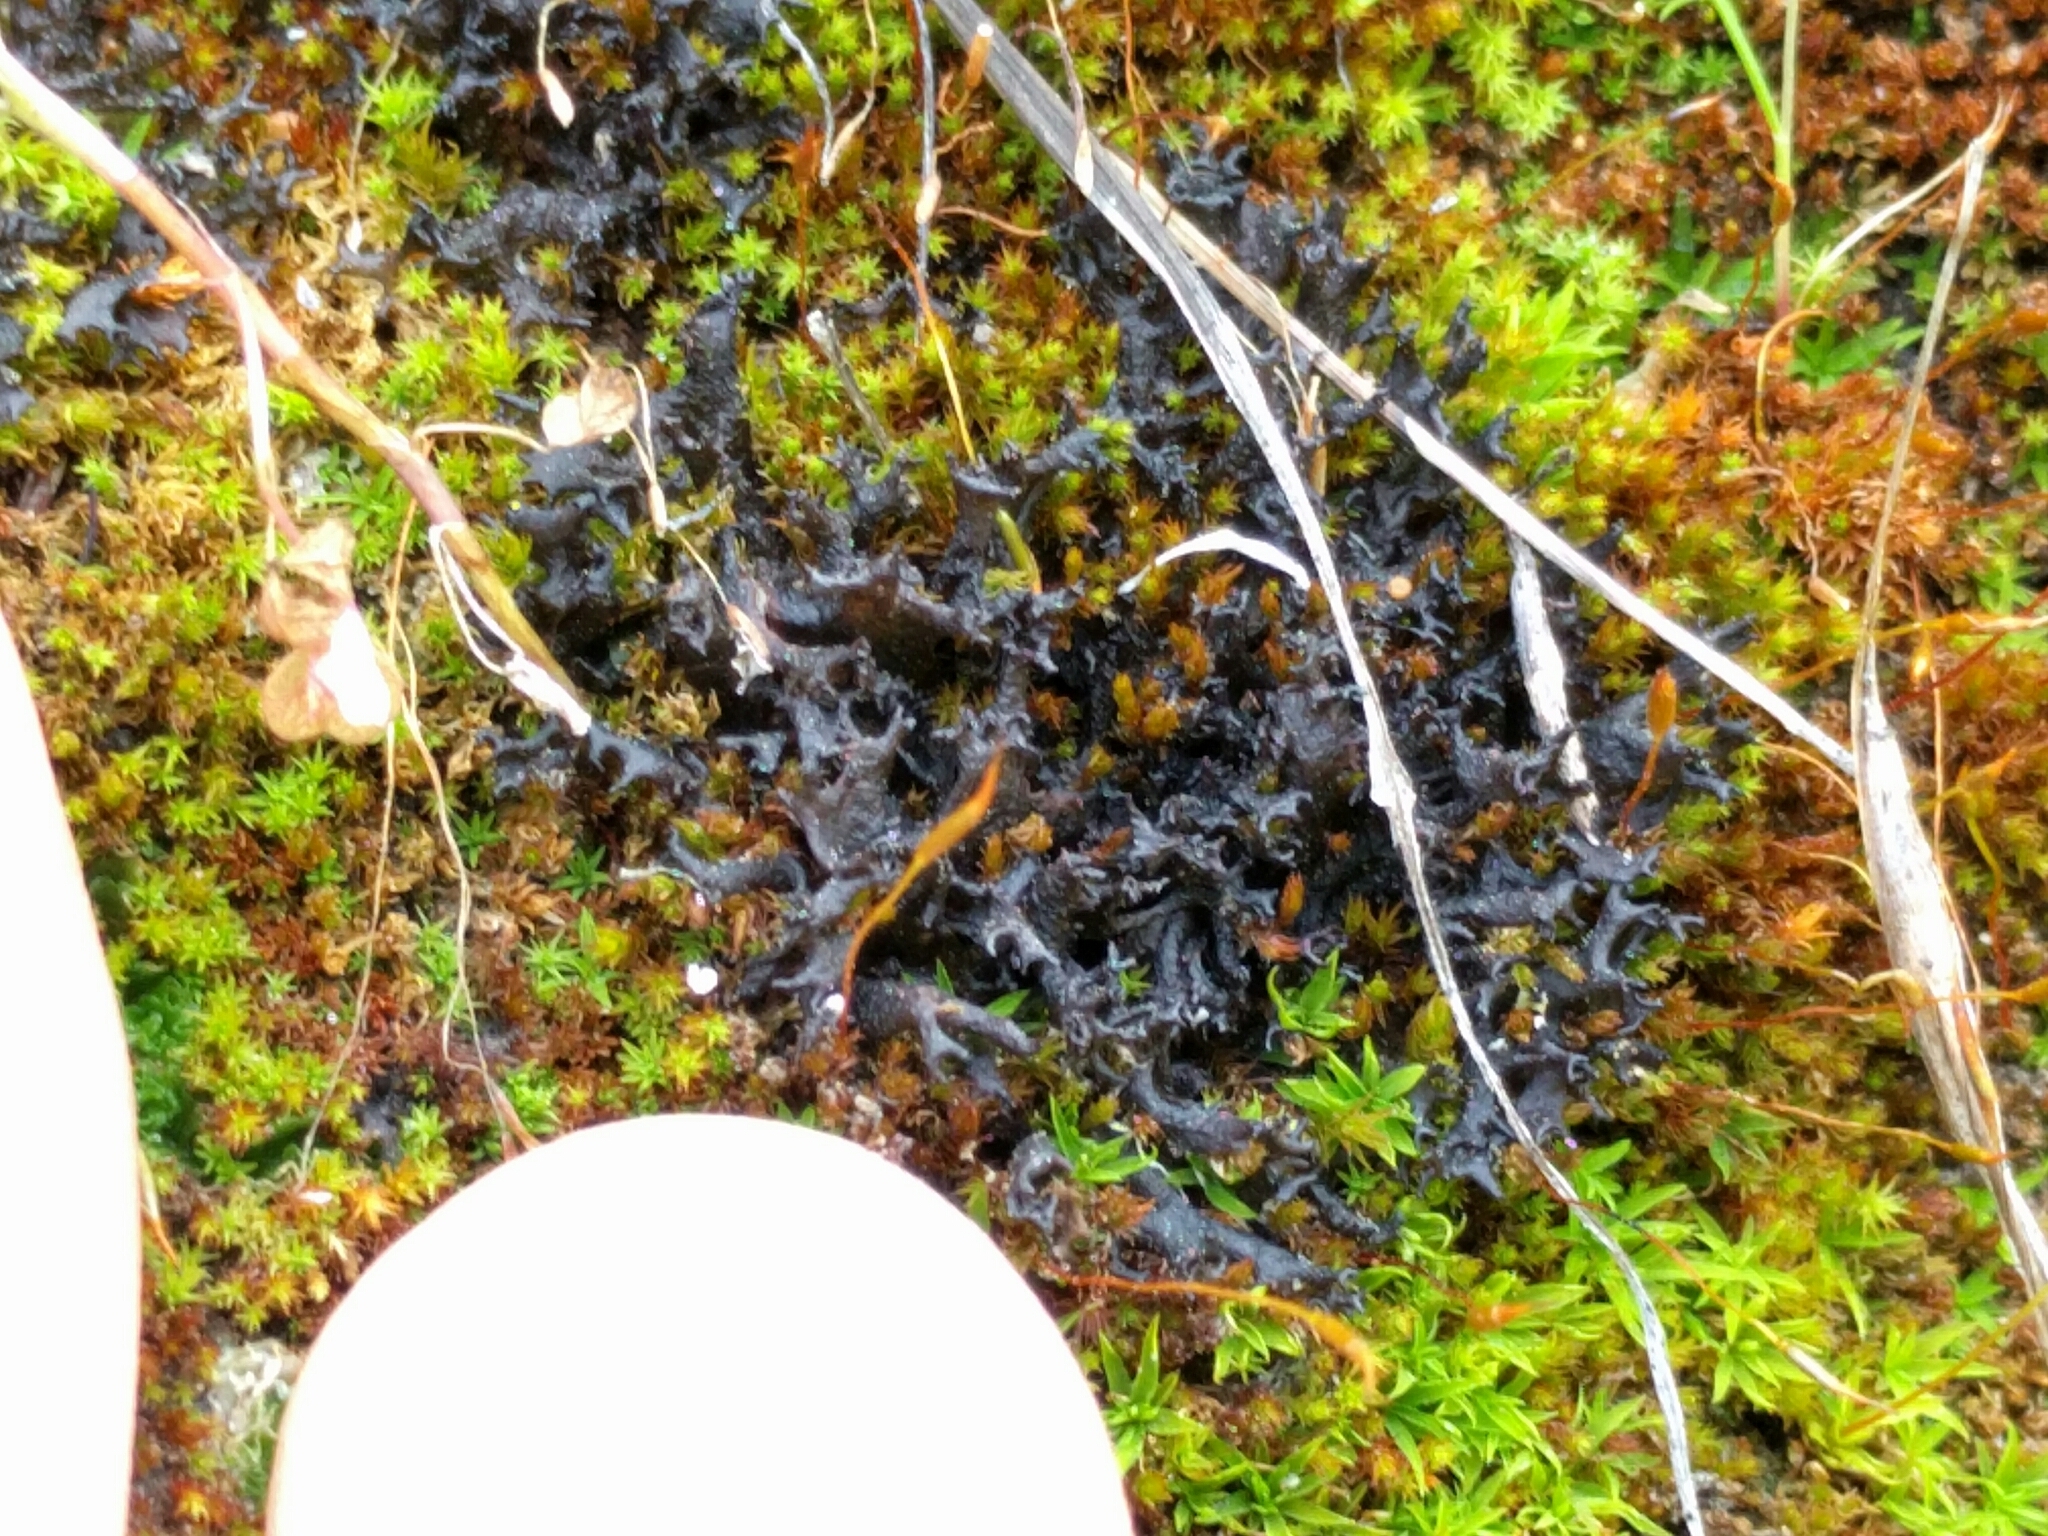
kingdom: Fungi
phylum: Ascomycota
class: Lecanoromycetes
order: Peltigerales
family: Collemataceae
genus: Scytinium
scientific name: Scytinium palmatum
